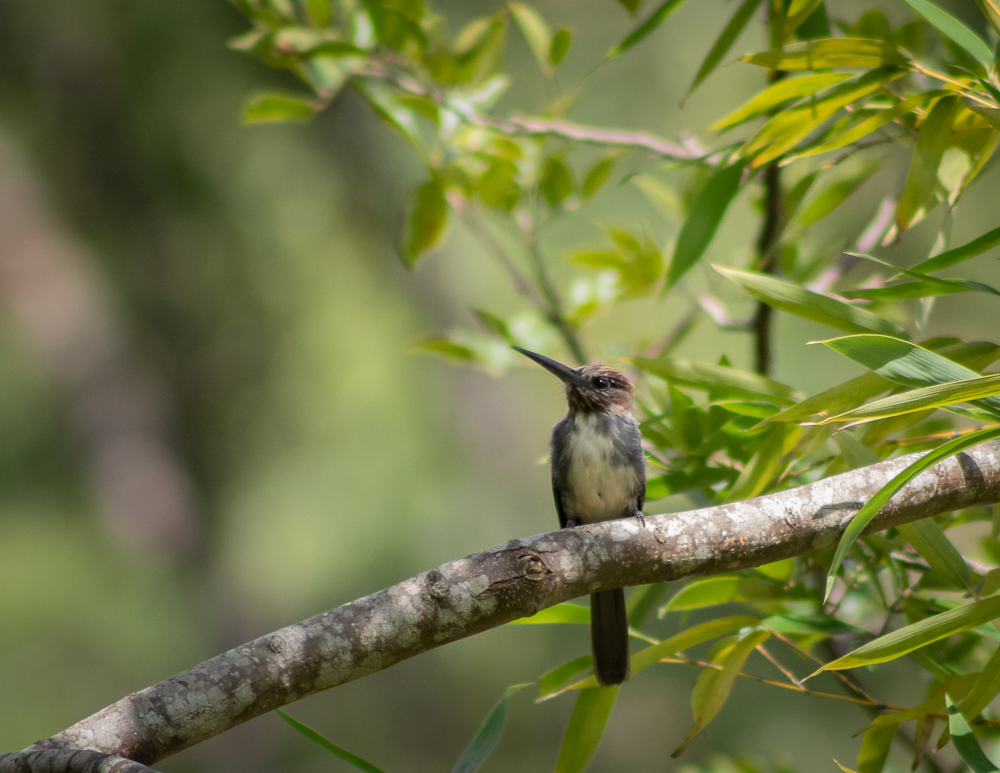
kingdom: Animalia
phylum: Chordata
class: Aves
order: Piciformes
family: Galbulidae
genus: Jacamaralcyon
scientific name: Jacamaralcyon tridactyla
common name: Three-toed jacamar
